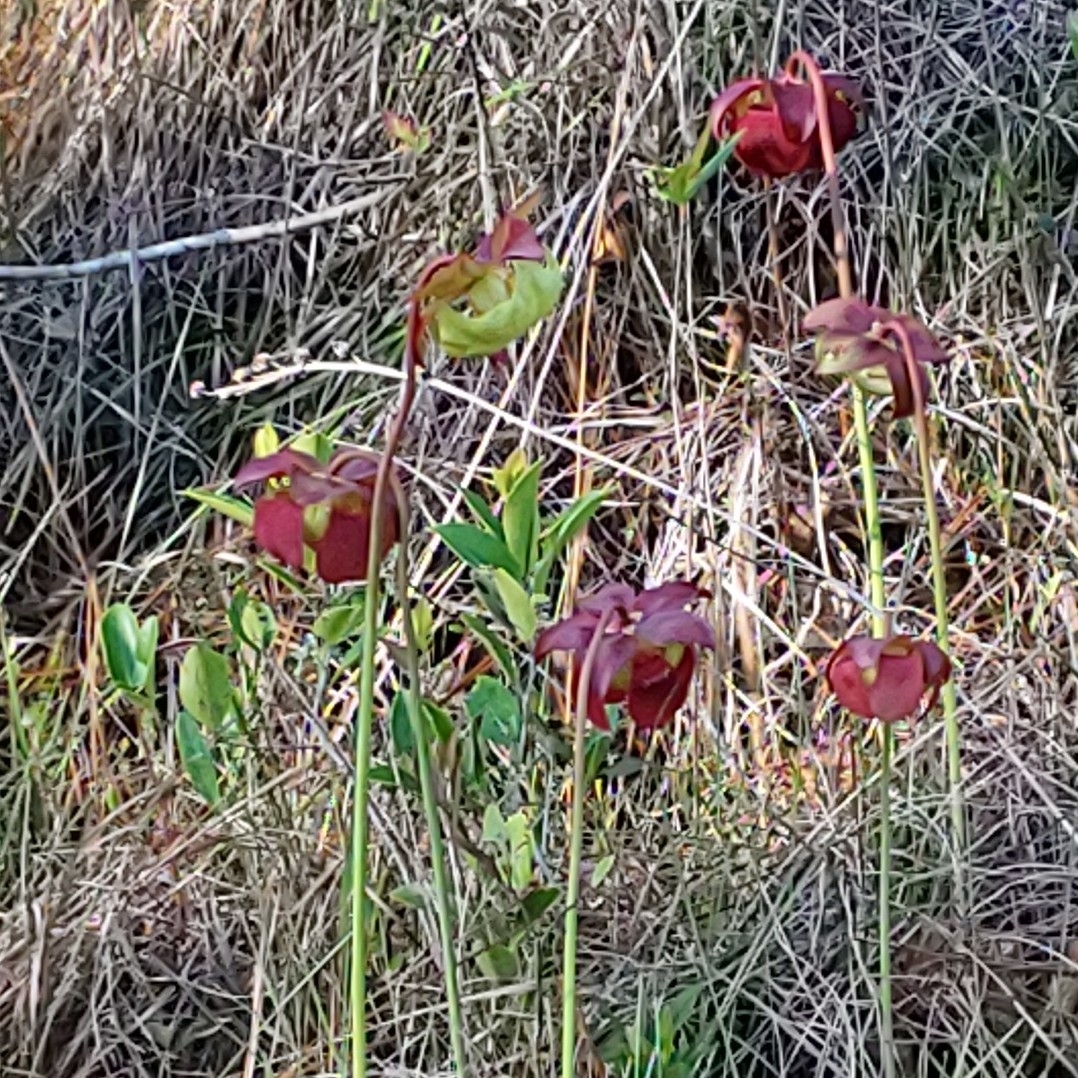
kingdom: Plantae
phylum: Tracheophyta
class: Magnoliopsida
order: Ericales
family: Sarraceniaceae
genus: Sarracenia
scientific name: Sarracenia purpurea
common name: Pitcherplant
